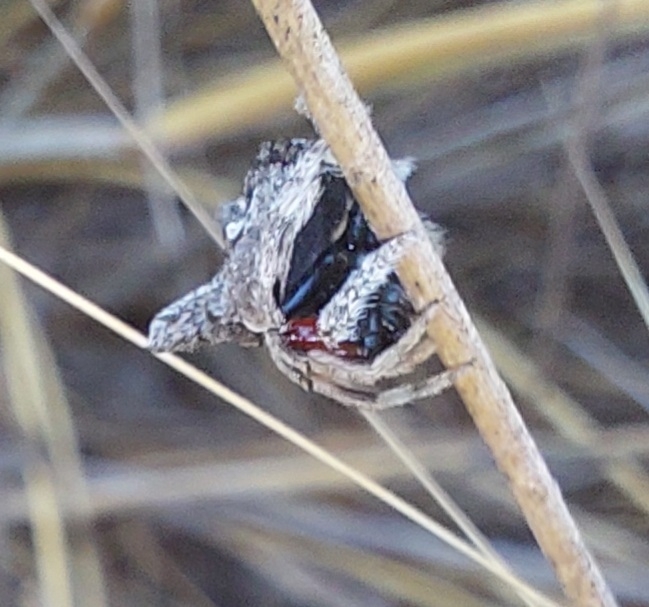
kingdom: Animalia
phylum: Arthropoda
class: Arachnida
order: Araneae
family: Araneidae
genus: Caerostris
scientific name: Caerostris sexcuspidata
